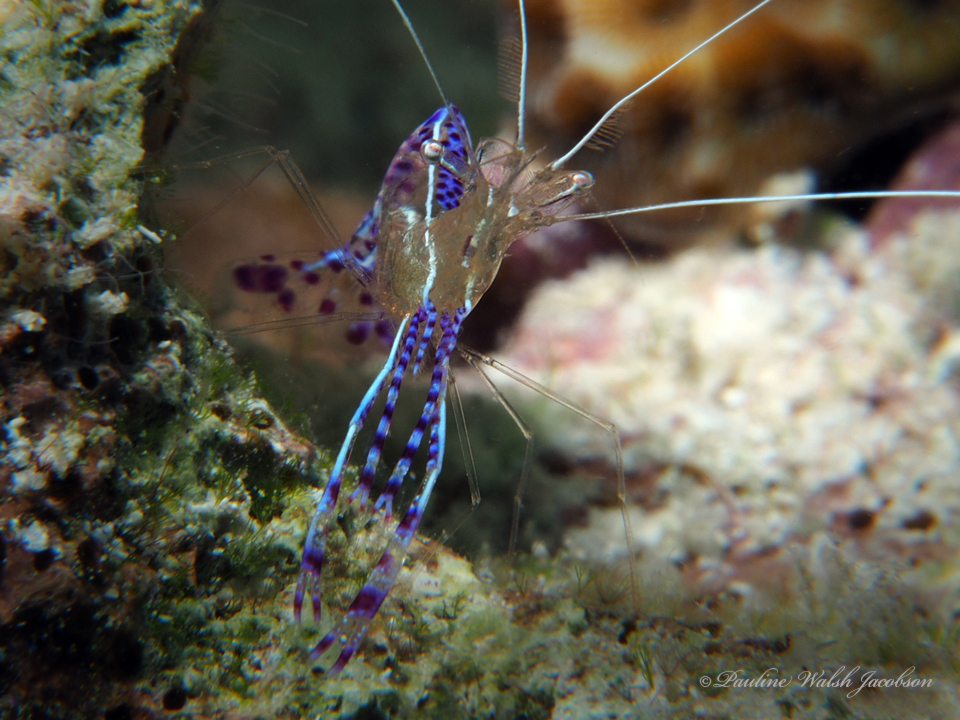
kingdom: Animalia
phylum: Arthropoda
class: Malacostraca
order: Decapoda
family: Palaemonidae
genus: Ancylomenes
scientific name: Ancylomenes pedersoni
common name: Pederson's cleaning shrimp
